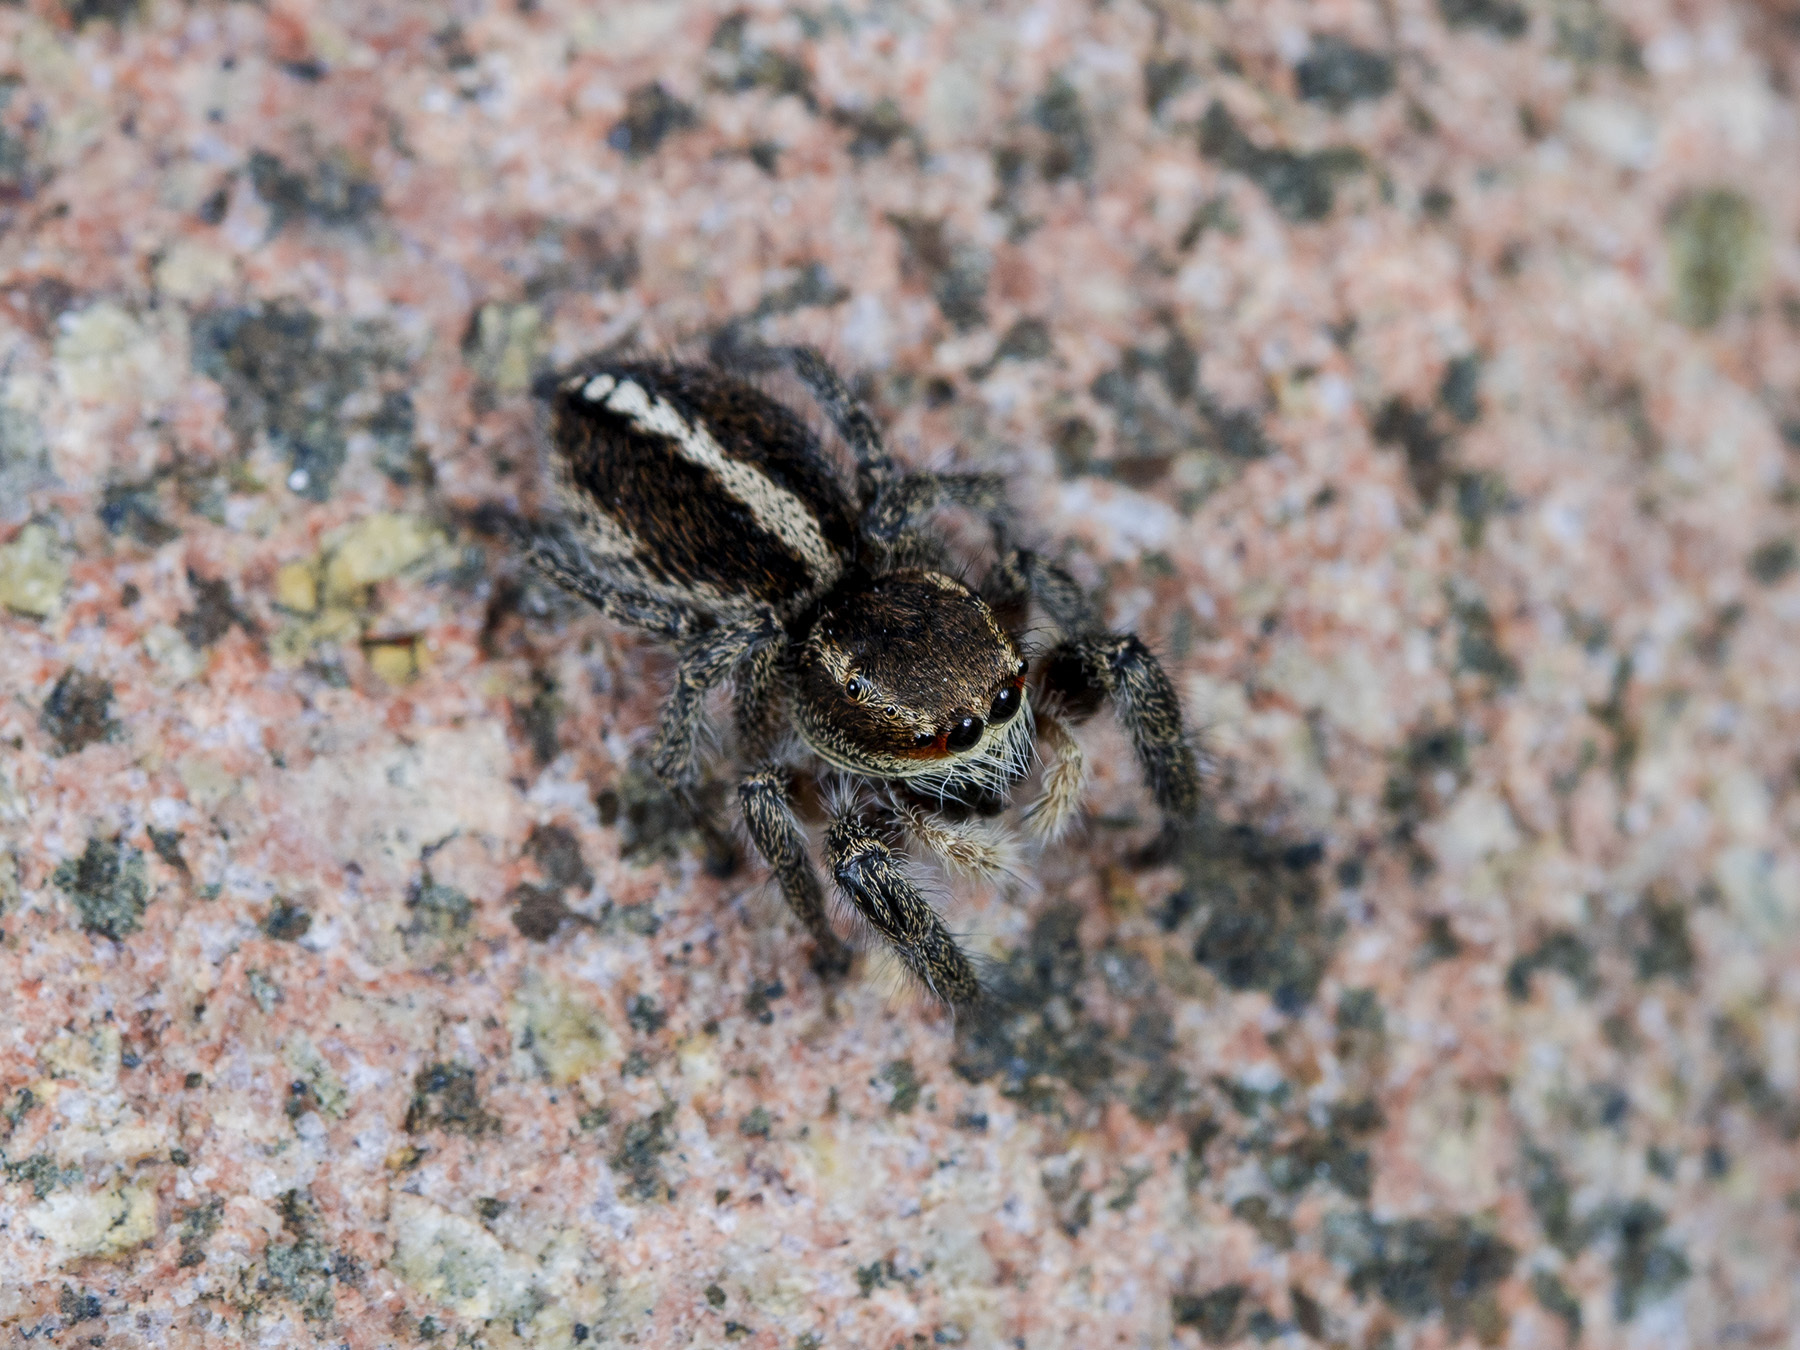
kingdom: Animalia
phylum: Arthropoda
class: Arachnida
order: Araneae
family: Salticidae
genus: Pellenes
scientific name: Pellenes seriatus
